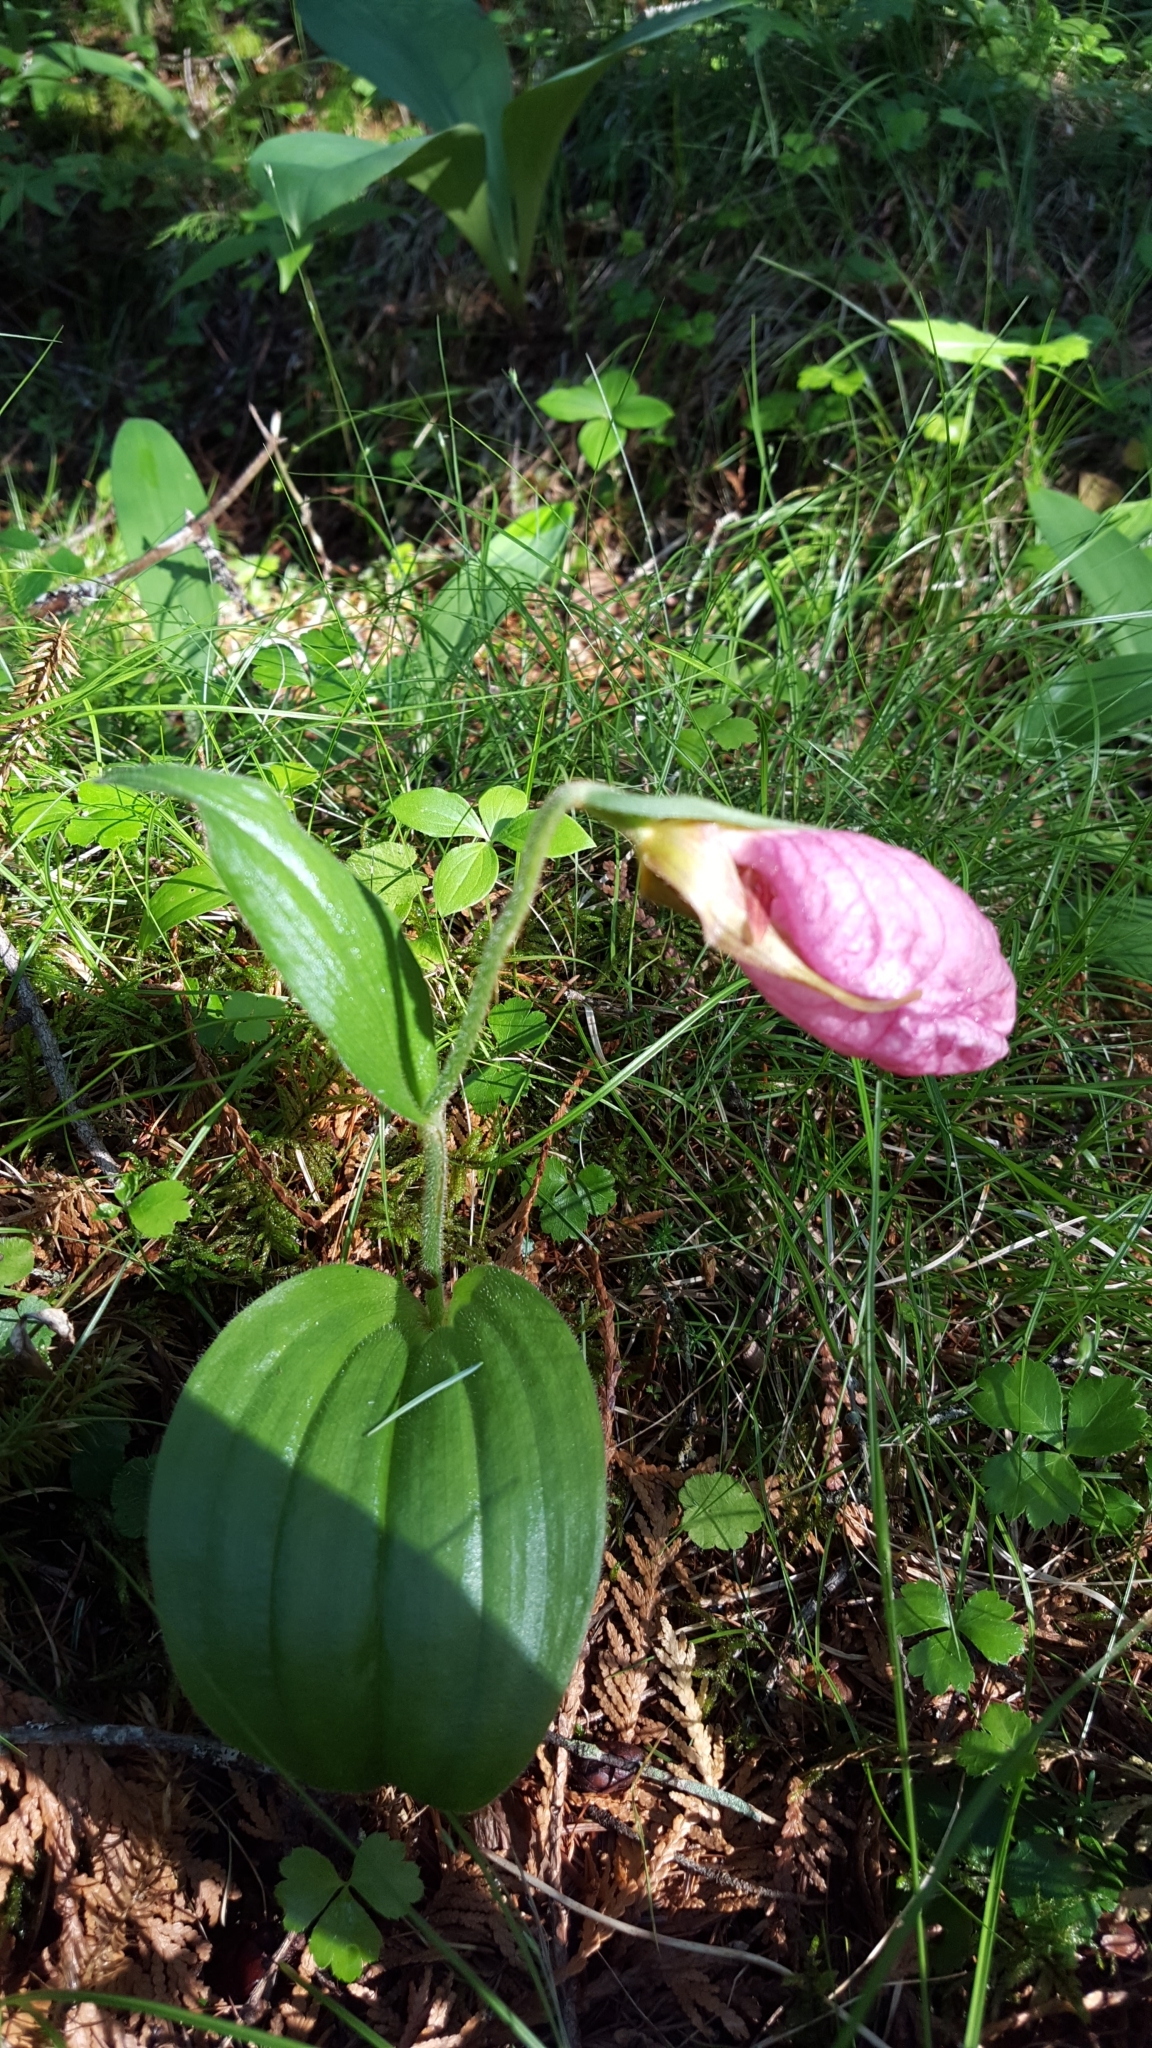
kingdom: Plantae
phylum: Tracheophyta
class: Liliopsida
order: Asparagales
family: Orchidaceae
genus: Cypripedium
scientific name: Cypripedium acaule
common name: Pink lady's-slipper
